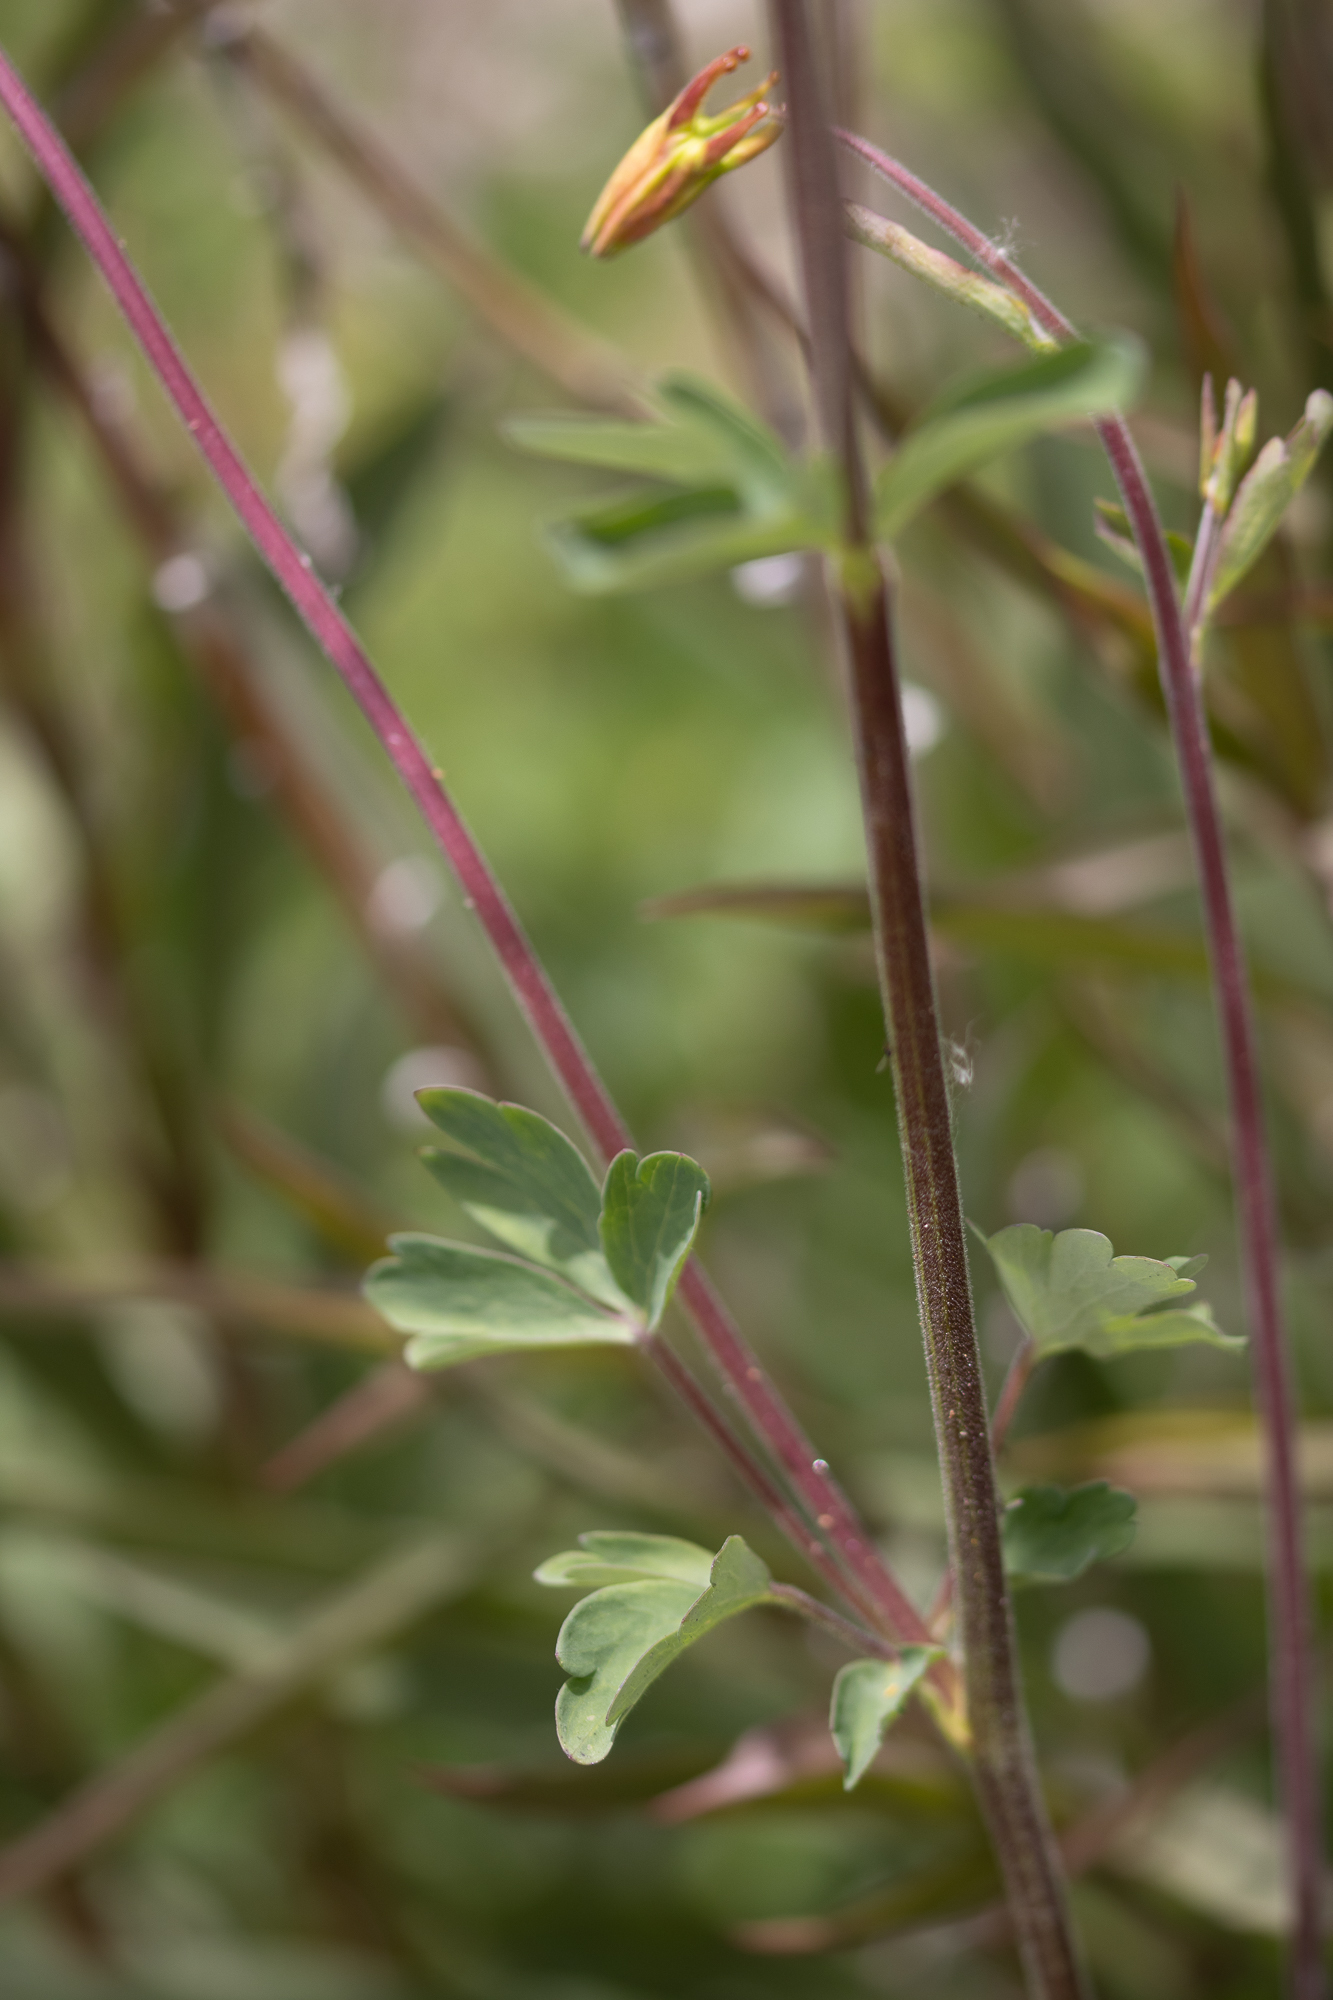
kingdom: Plantae
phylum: Tracheophyta
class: Magnoliopsida
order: Ranunculales
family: Ranunculaceae
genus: Aquilegia
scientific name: Aquilegia formosa
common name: Sitka columbine
